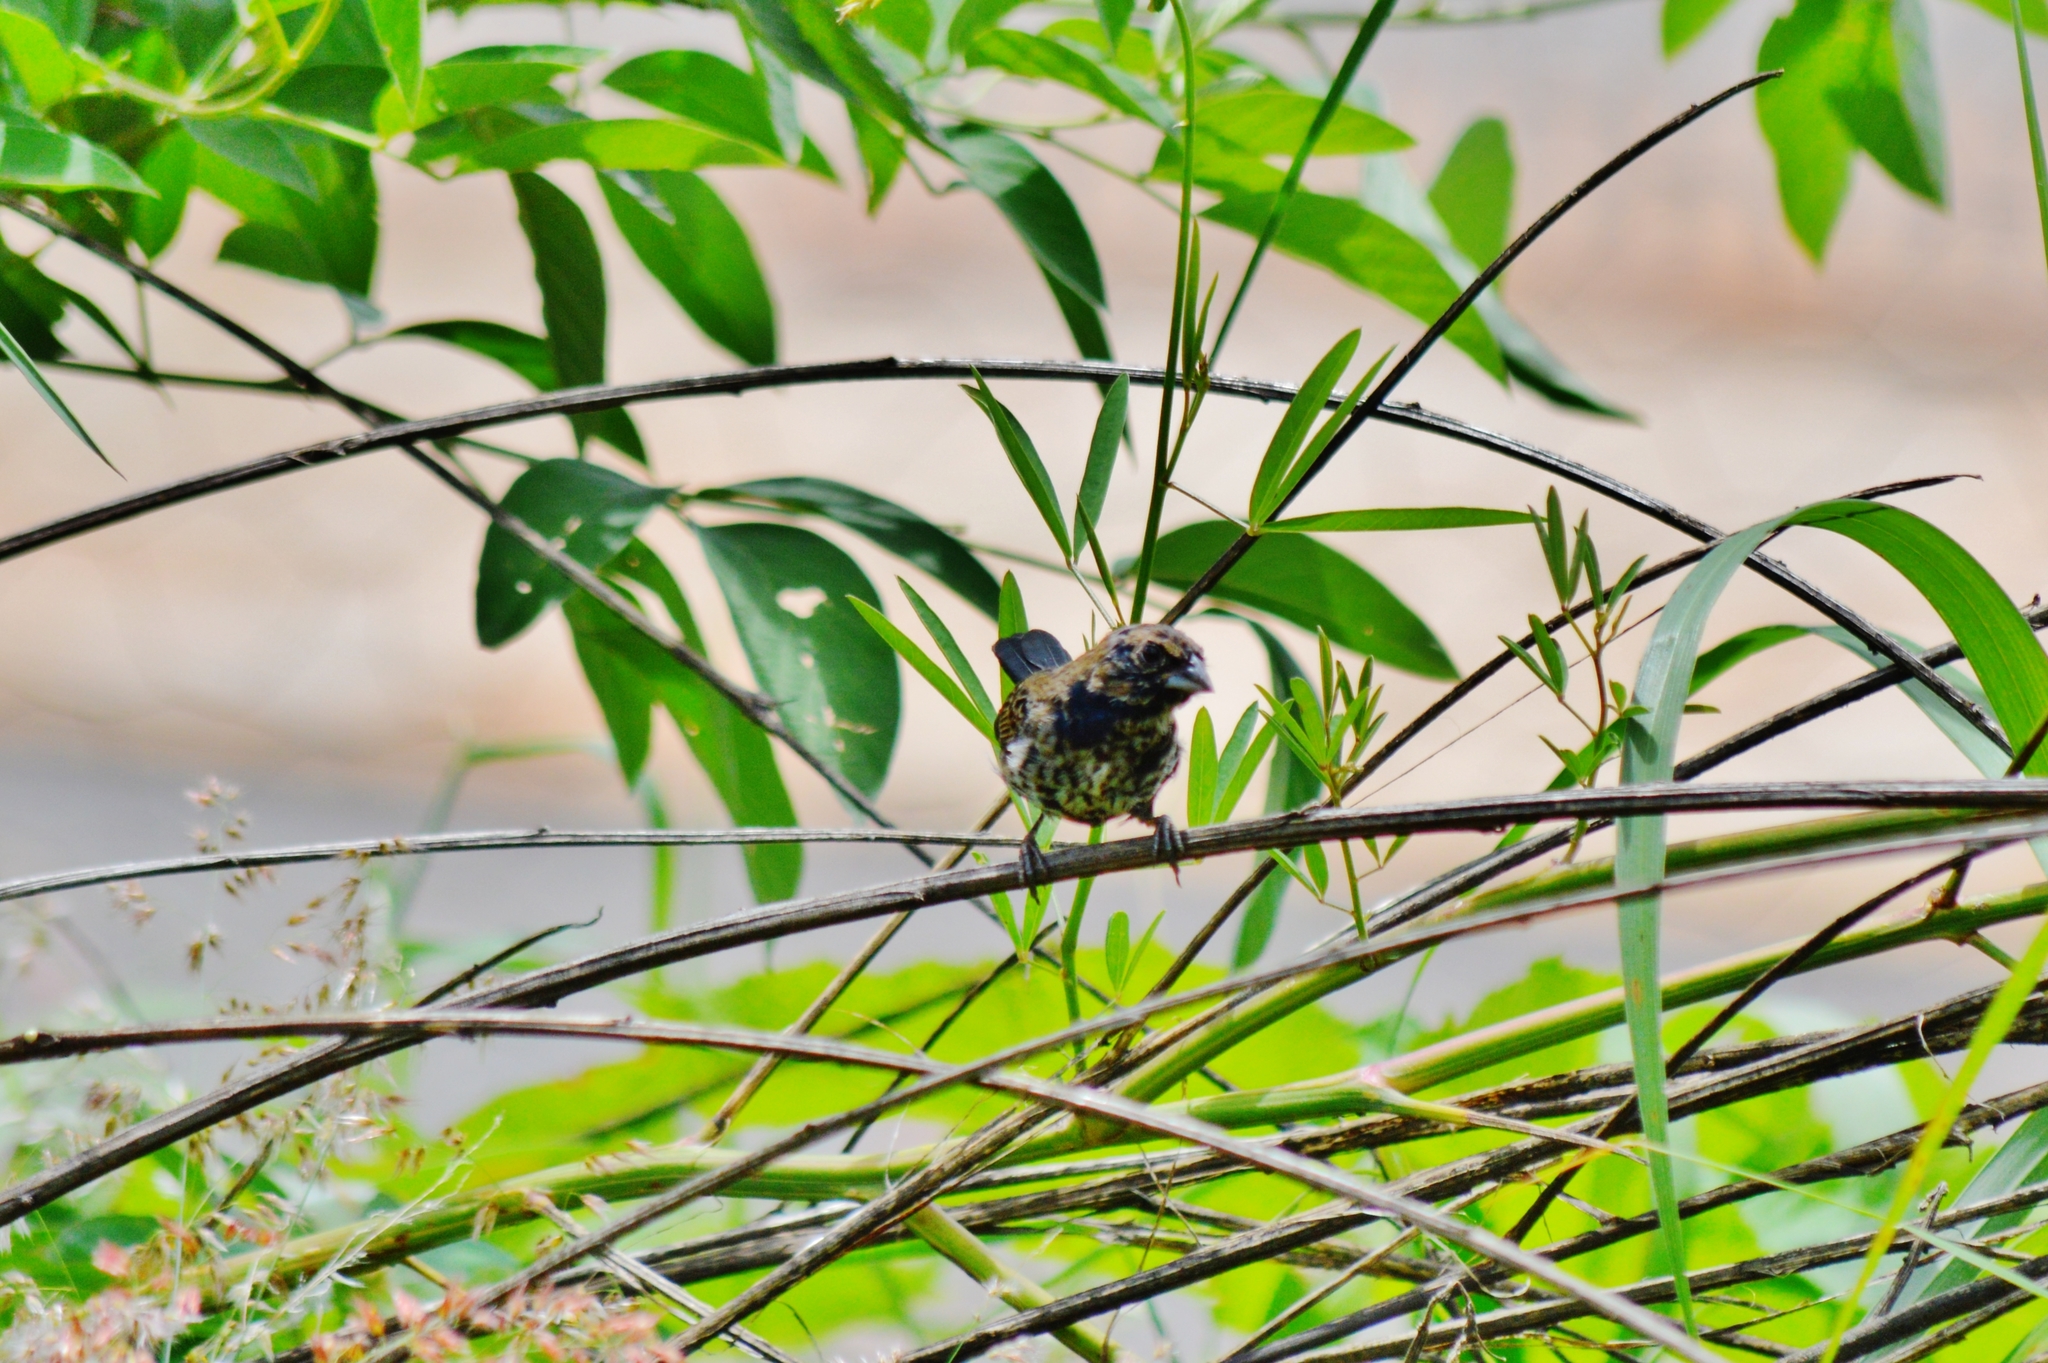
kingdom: Animalia
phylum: Chordata
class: Aves
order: Passeriformes
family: Thraupidae
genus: Volatinia
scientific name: Volatinia jacarina
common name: Blue-black grassquit
